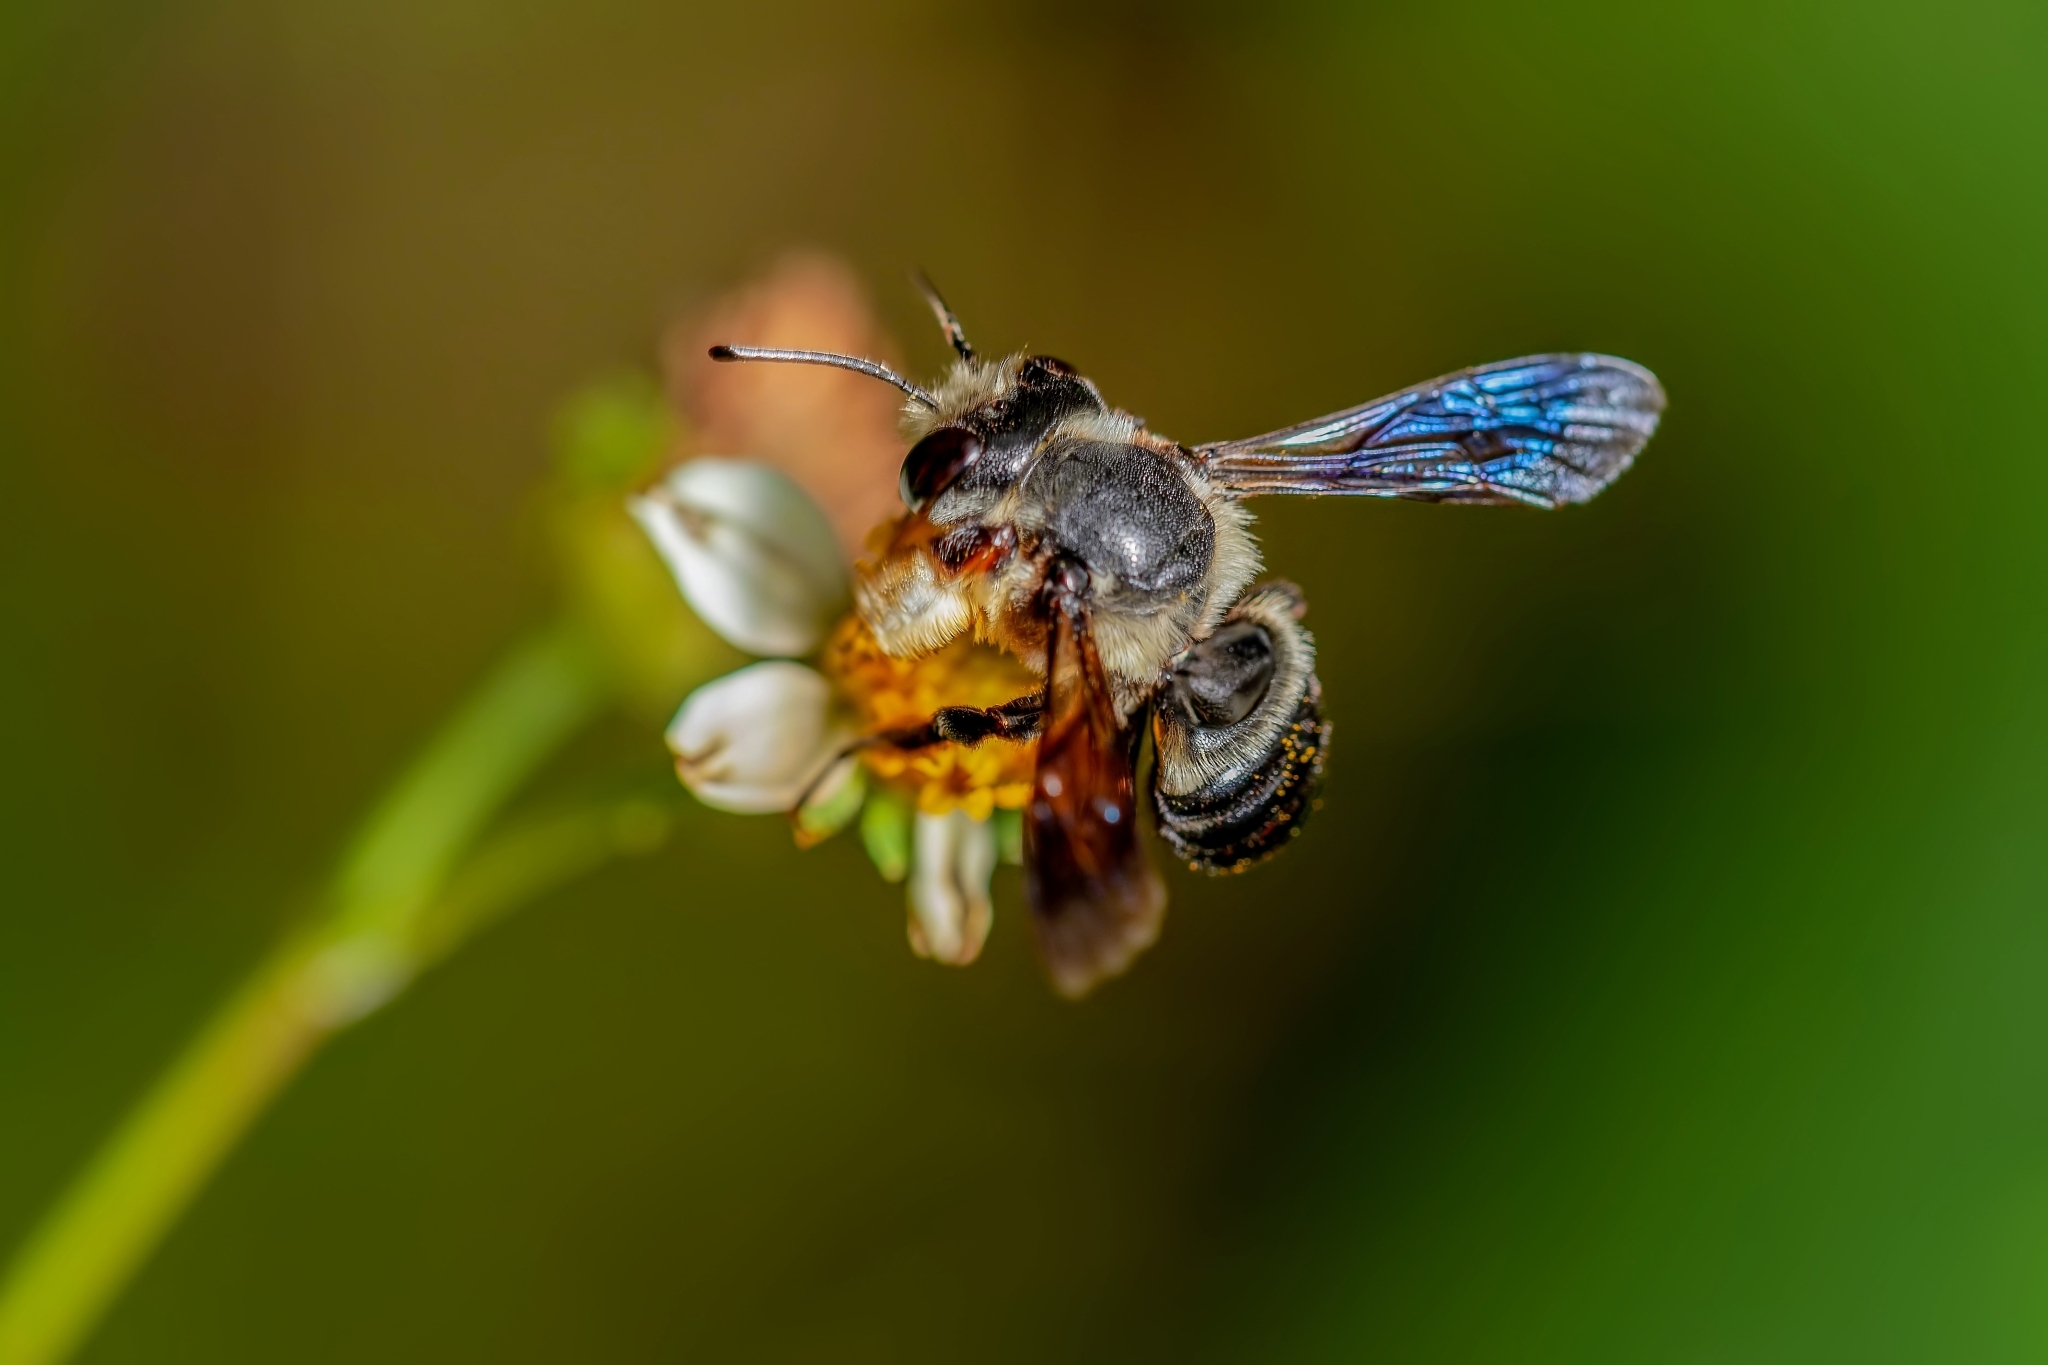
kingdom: Animalia
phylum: Arthropoda
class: Insecta
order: Hymenoptera
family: Megachilidae
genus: Megachile
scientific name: Megachile xylocopoides
